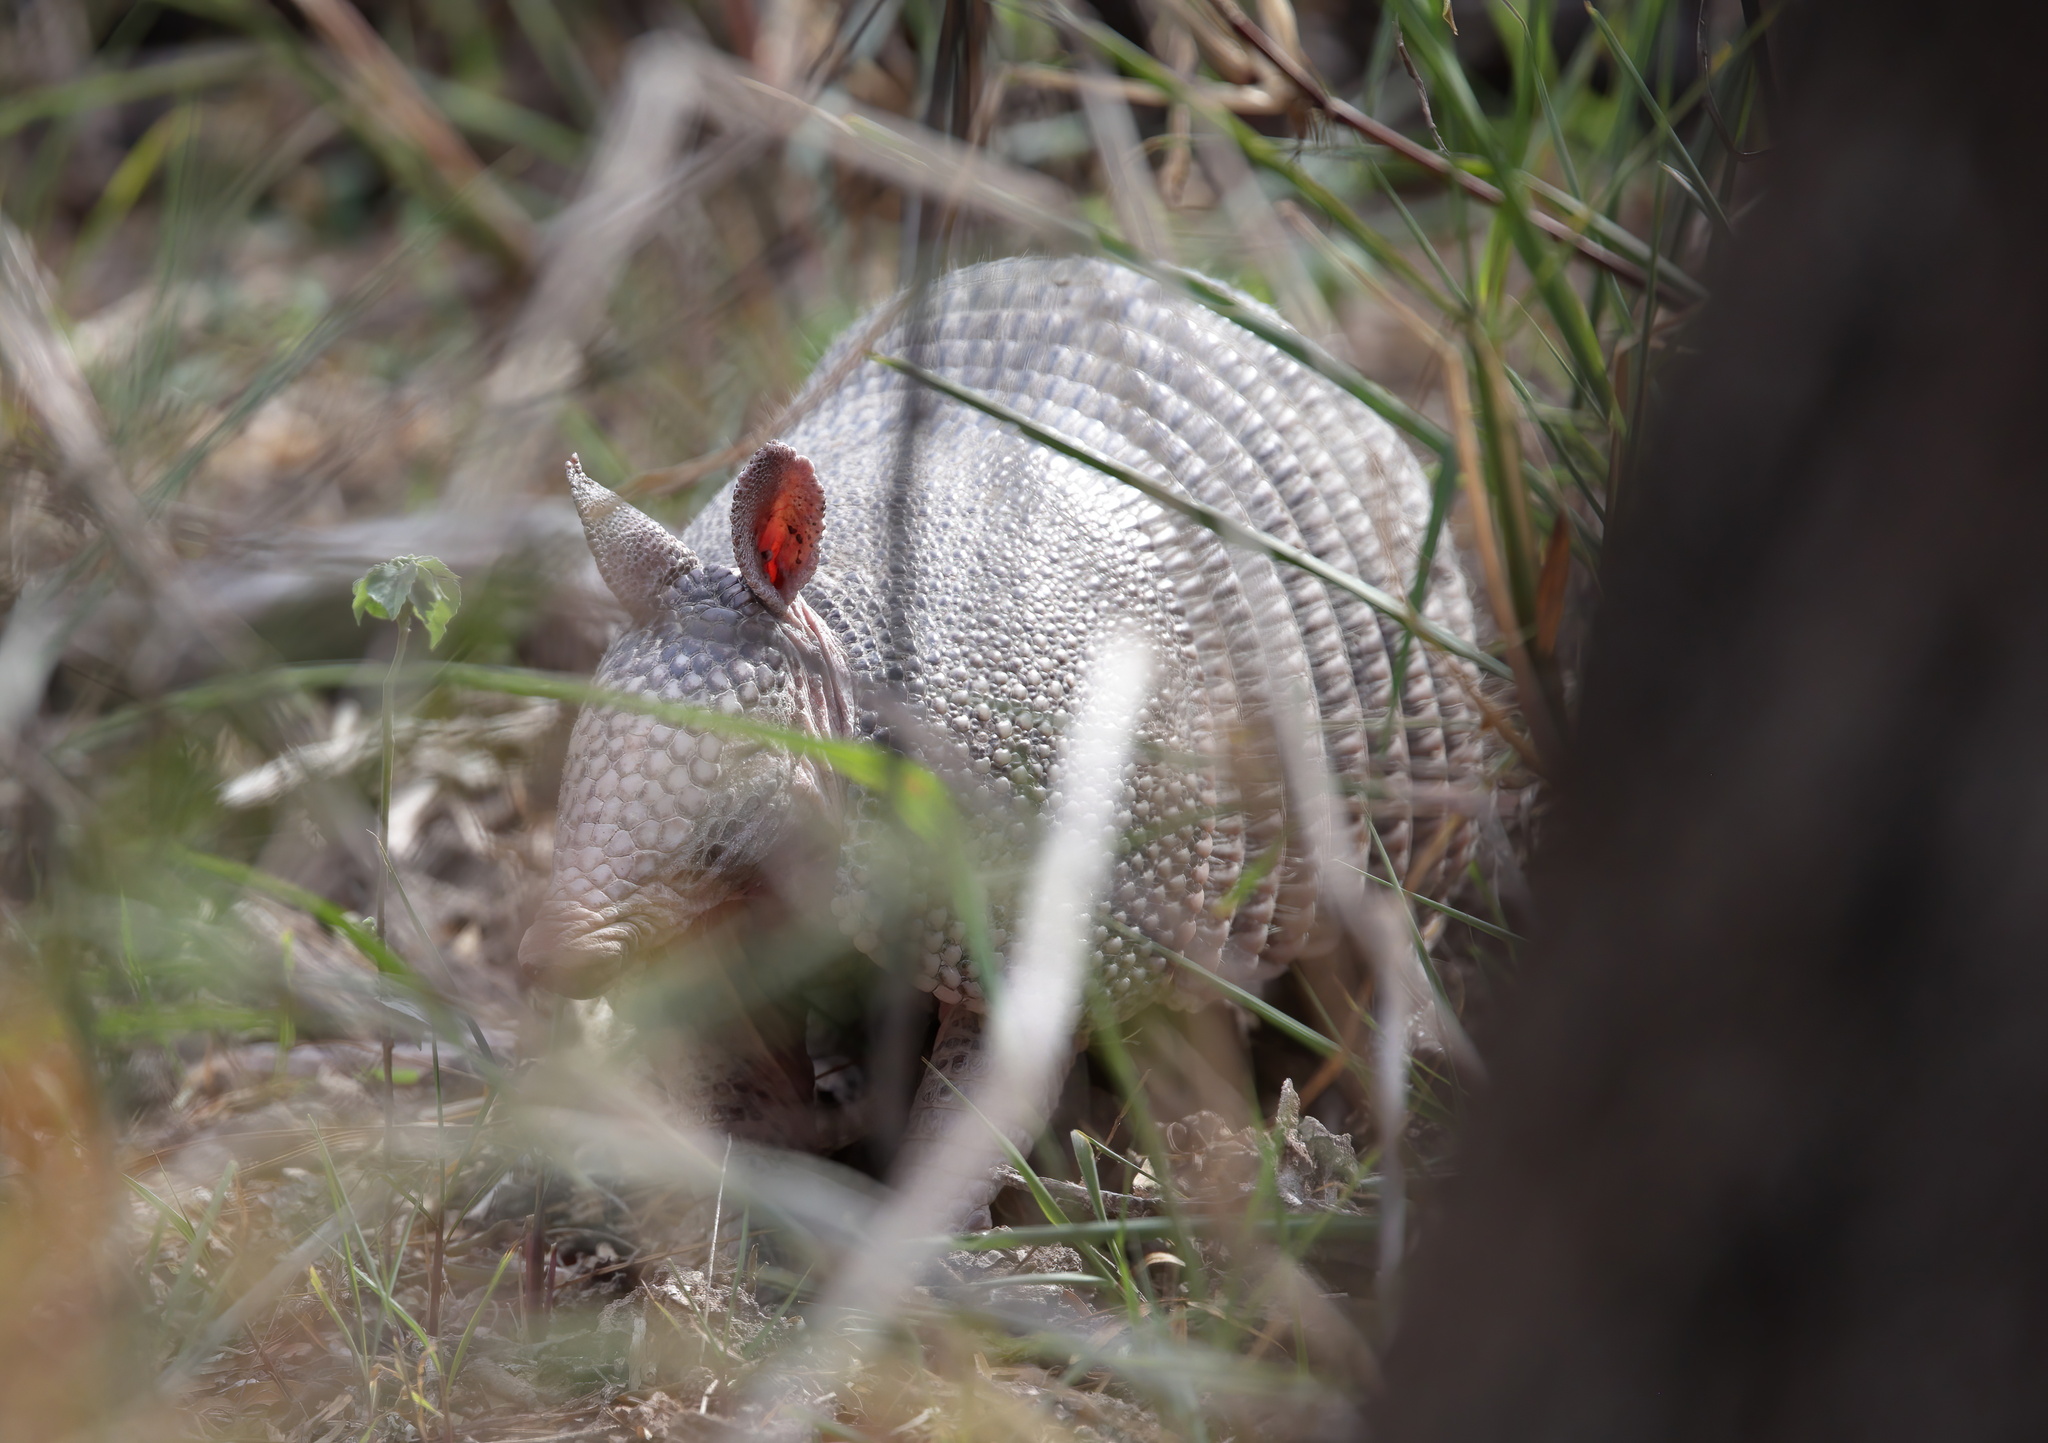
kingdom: Animalia
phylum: Chordata
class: Mammalia
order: Cingulata
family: Dasypodidae
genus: Dasypus
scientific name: Dasypus novemcinctus
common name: Nine-banded armadillo
